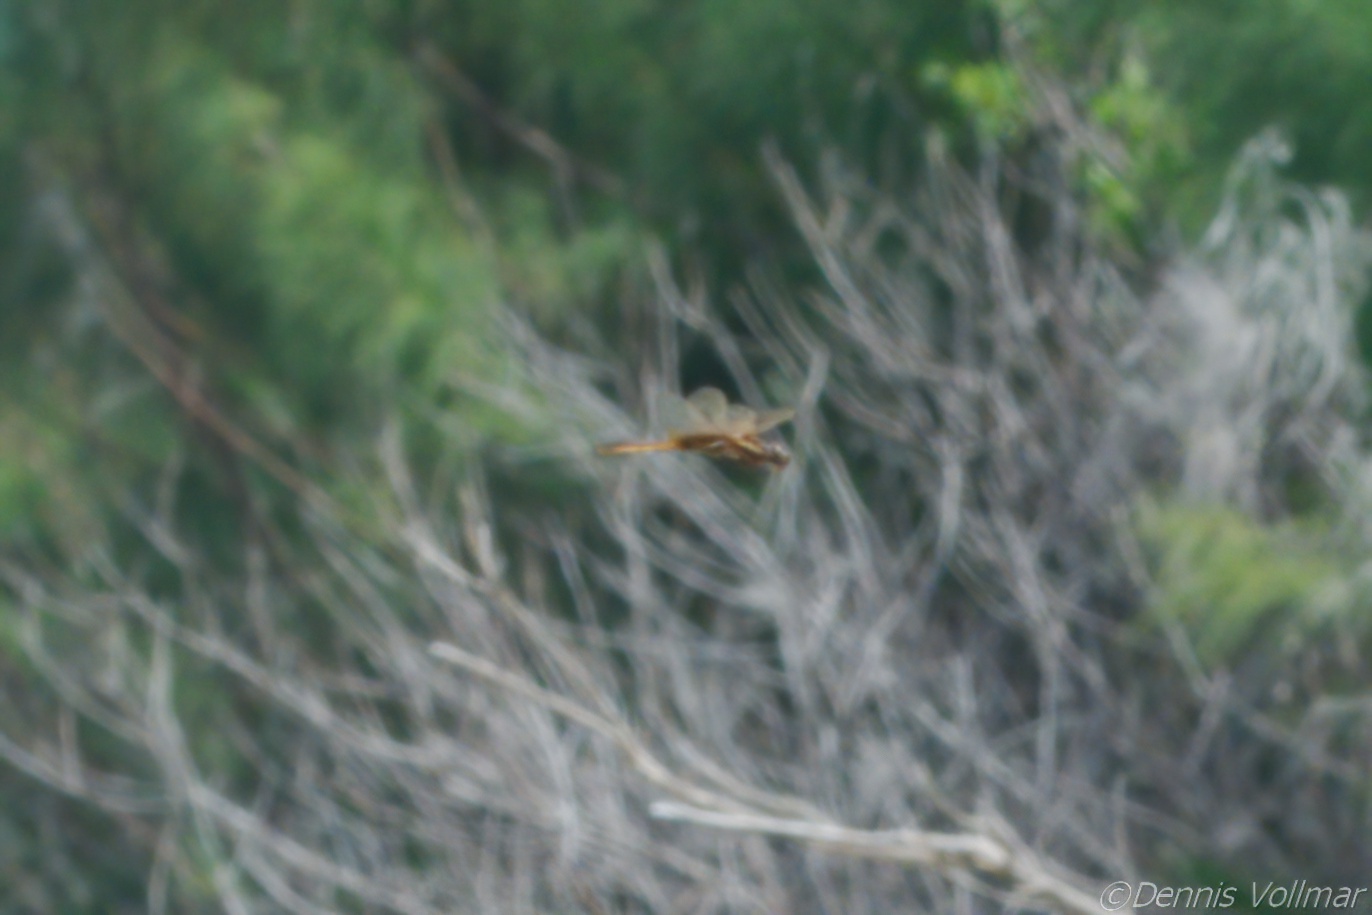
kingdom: Animalia
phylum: Arthropoda
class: Insecta
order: Odonata
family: Libellulidae
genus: Miathyria
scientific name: Miathyria marcella
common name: Hyacinth glider
